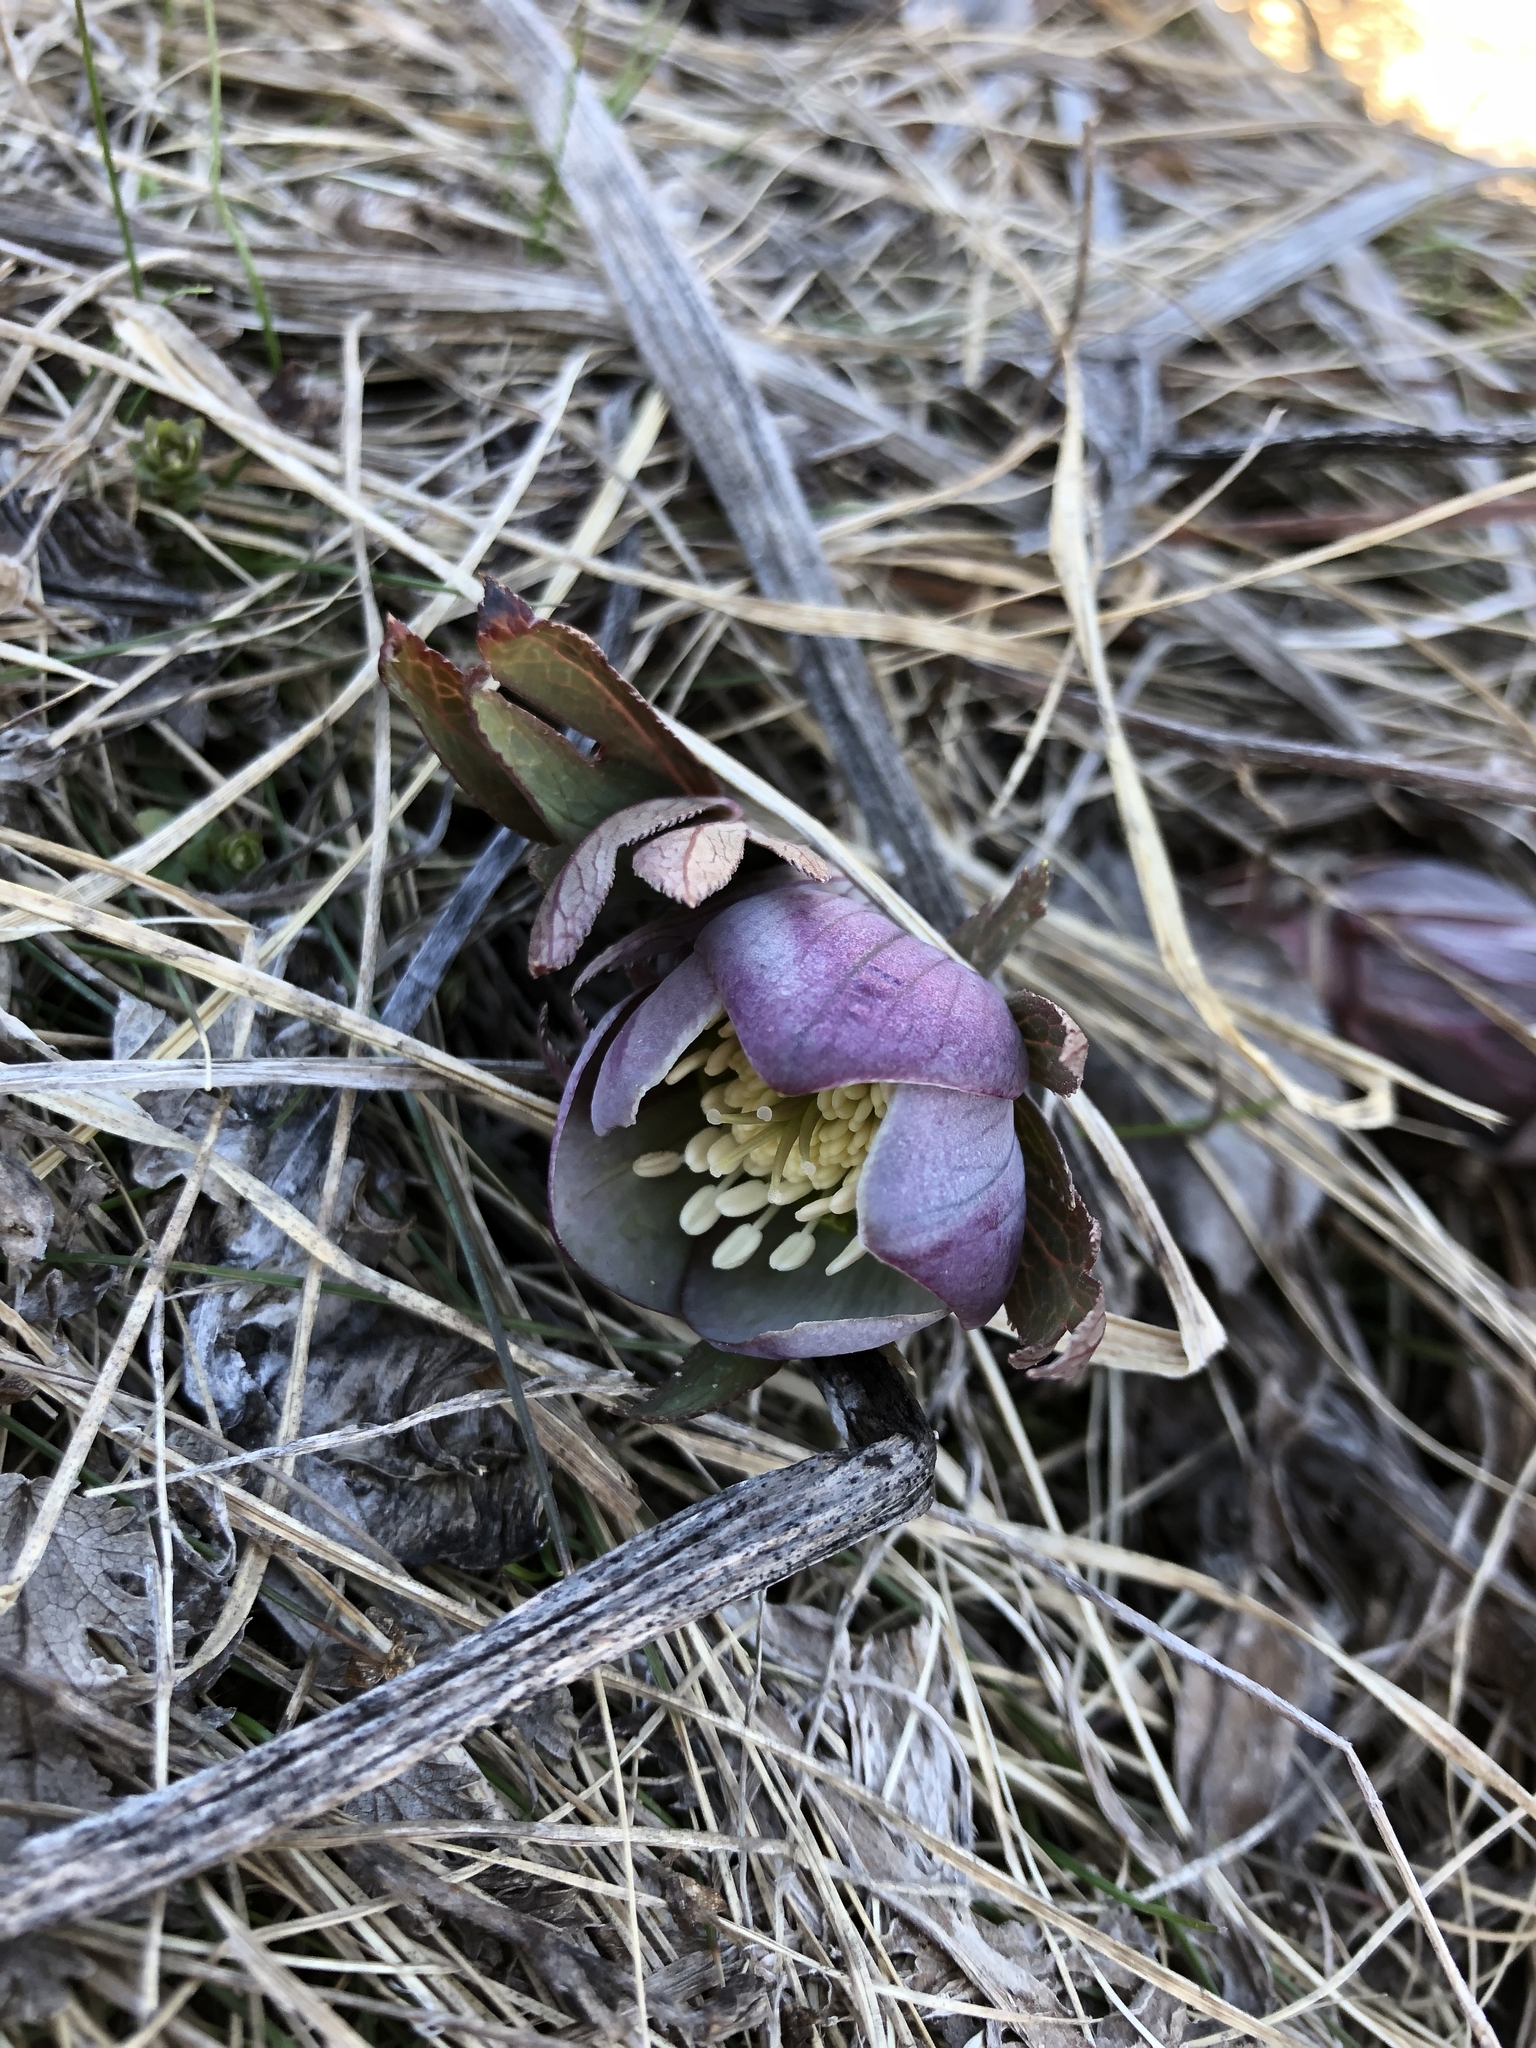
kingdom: Plantae
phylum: Tracheophyta
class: Magnoliopsida
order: Ranunculales
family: Ranunculaceae
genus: Helleborus
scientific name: Helleborus purpurascens
